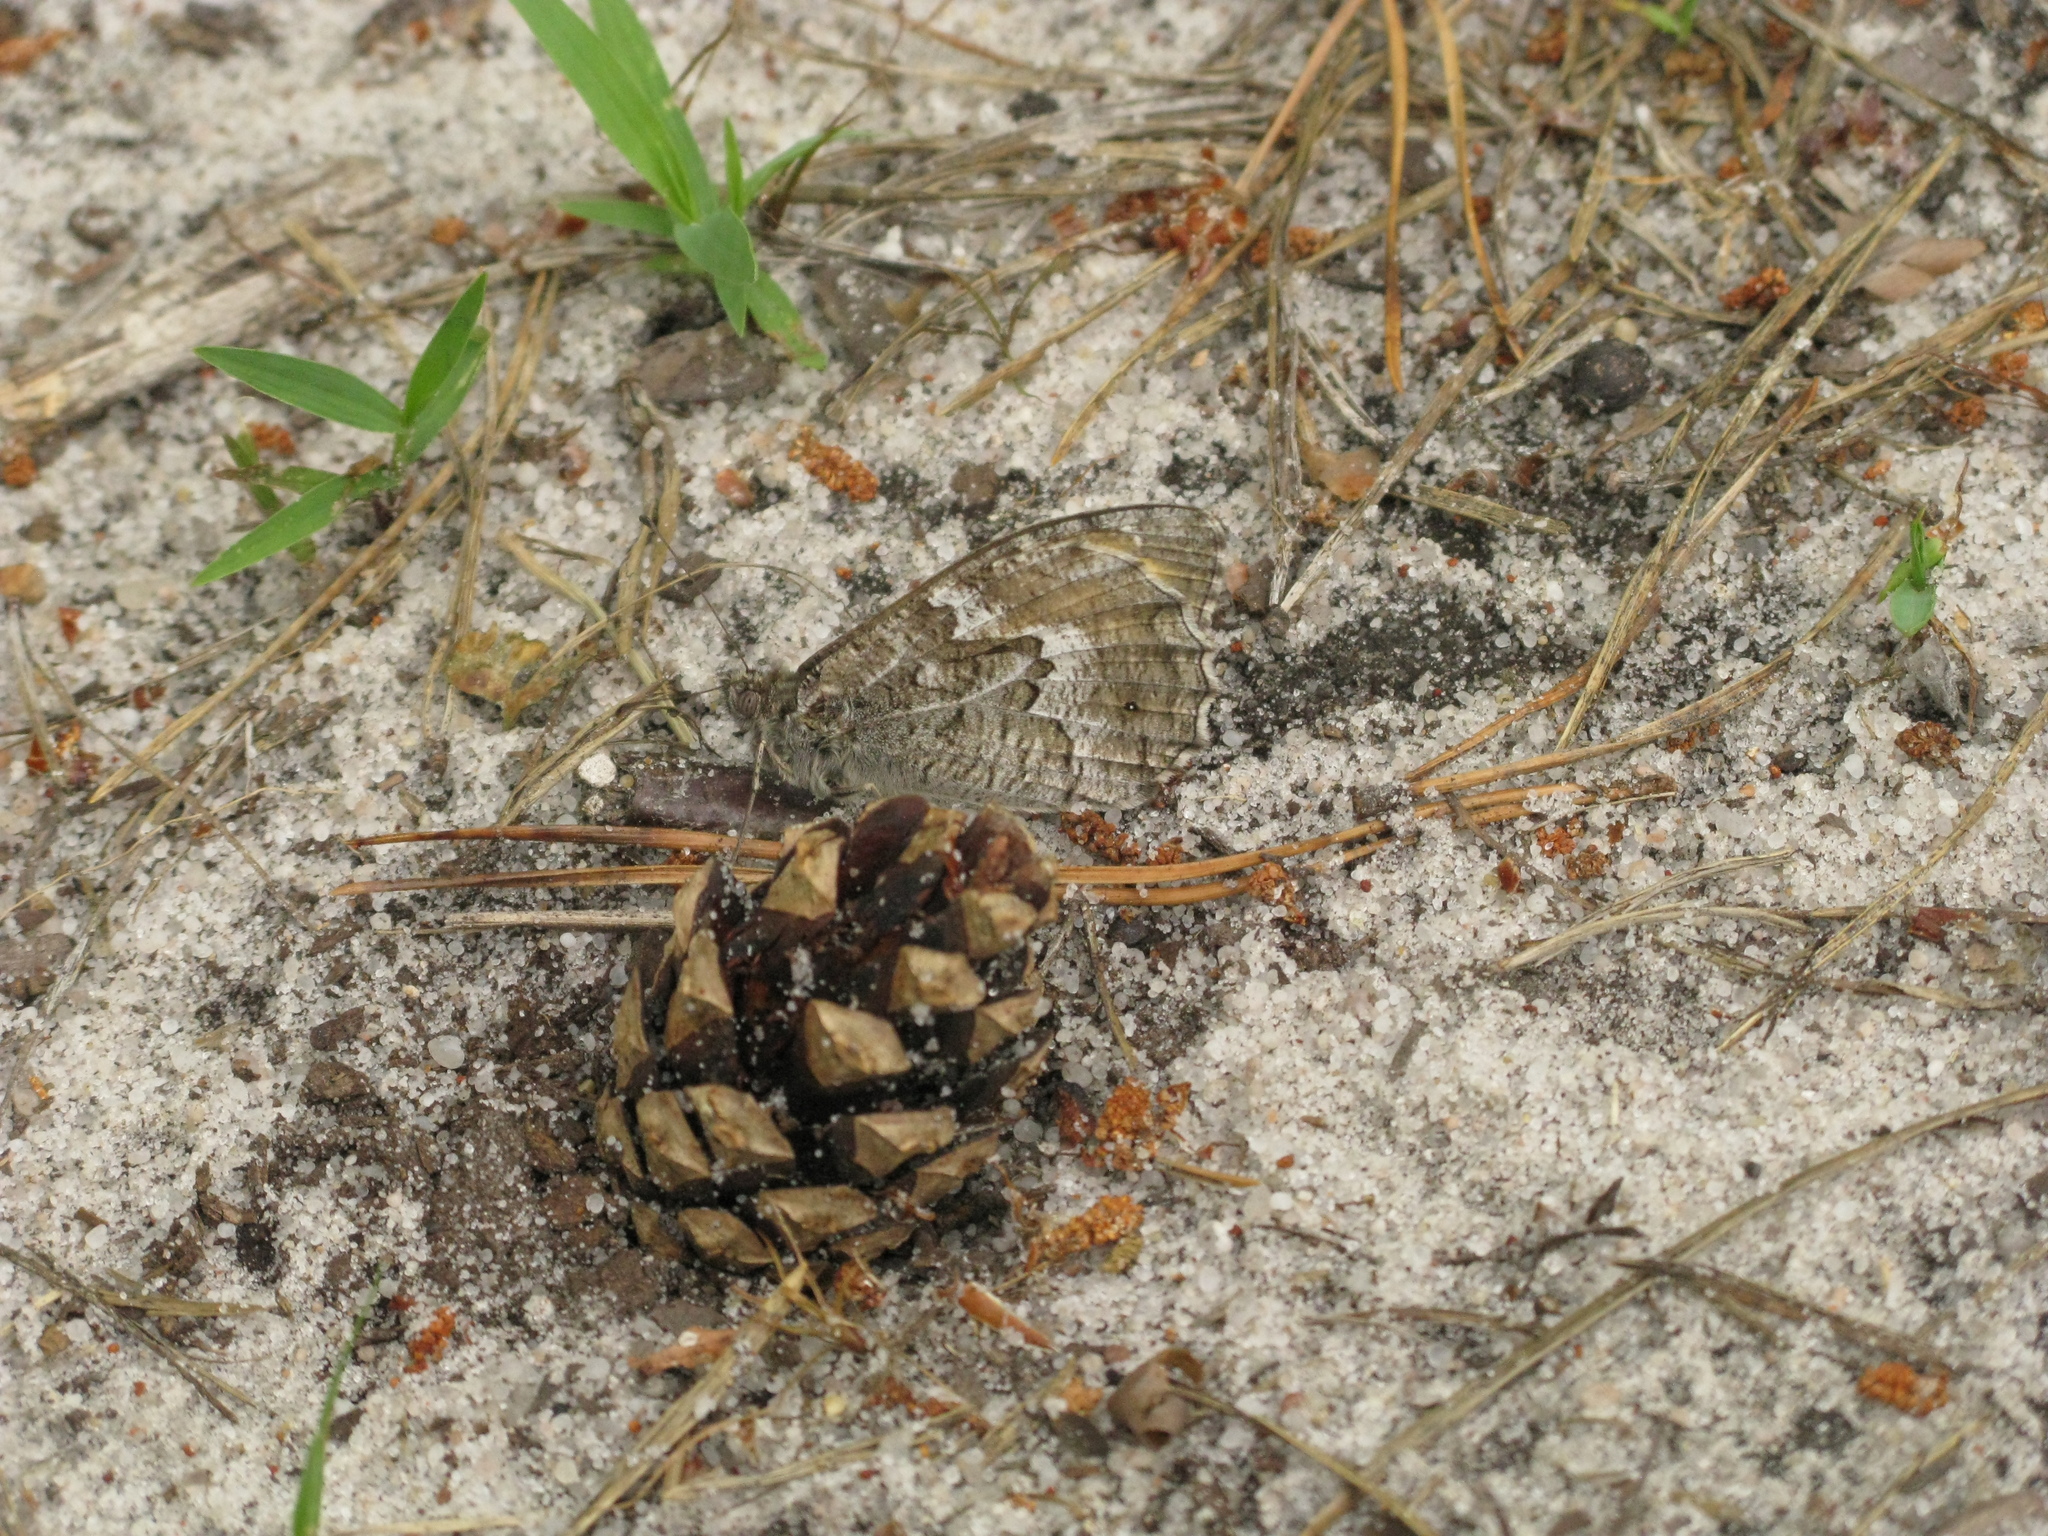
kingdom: Animalia
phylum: Arthropoda
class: Insecta
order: Lepidoptera
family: Nymphalidae
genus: Hipparchia
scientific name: Hipparchia semele
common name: Grayling
